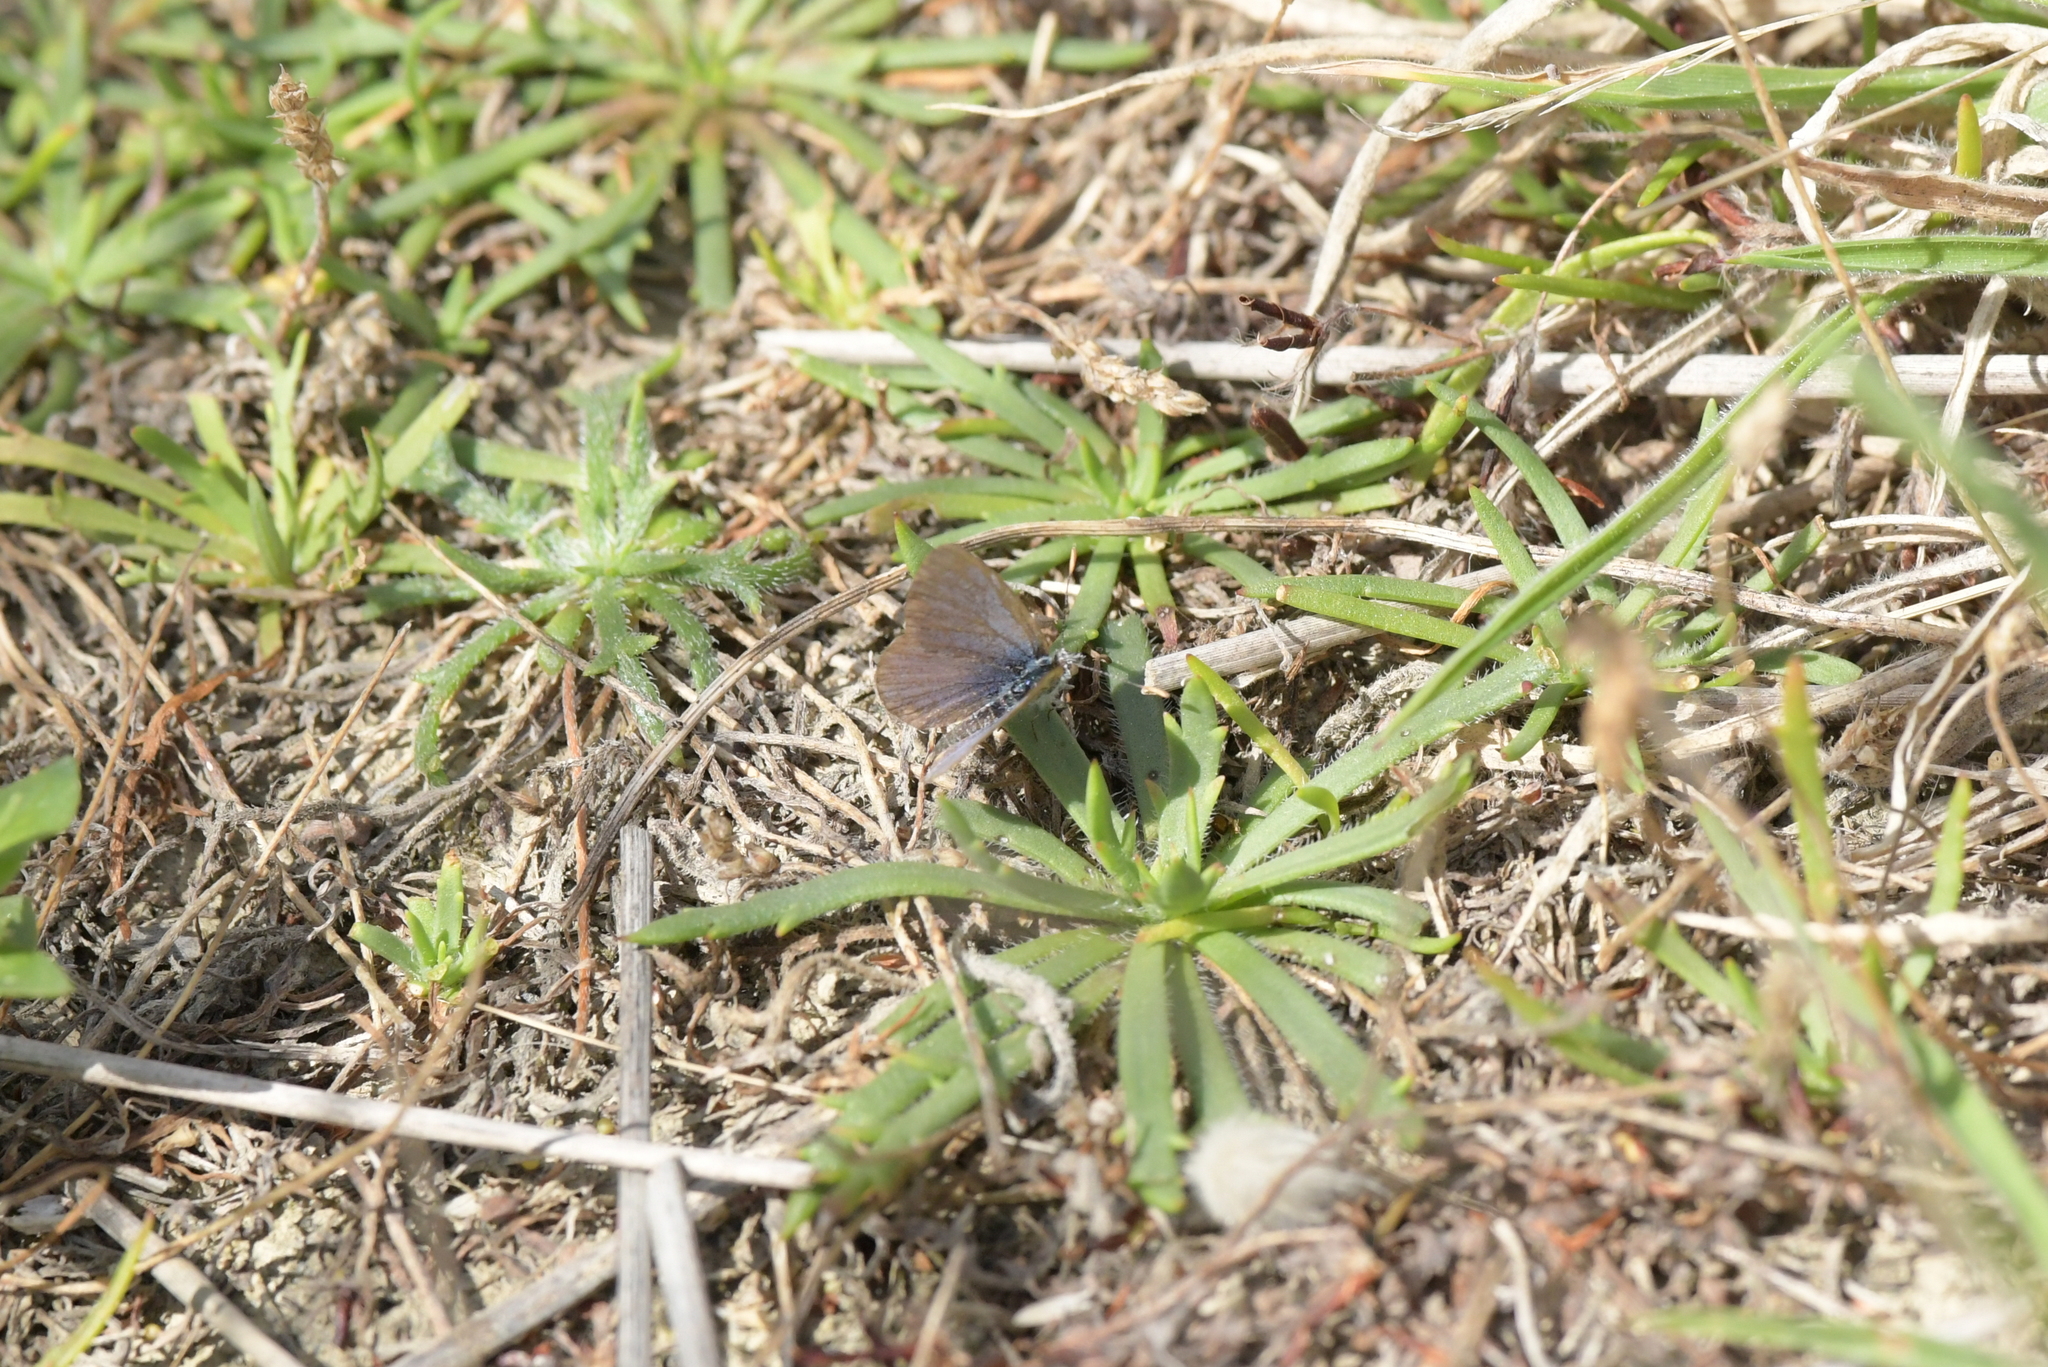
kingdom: Animalia
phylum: Arthropoda
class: Insecta
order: Lepidoptera
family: Lycaenidae
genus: Zizina
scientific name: Zizina labradus
